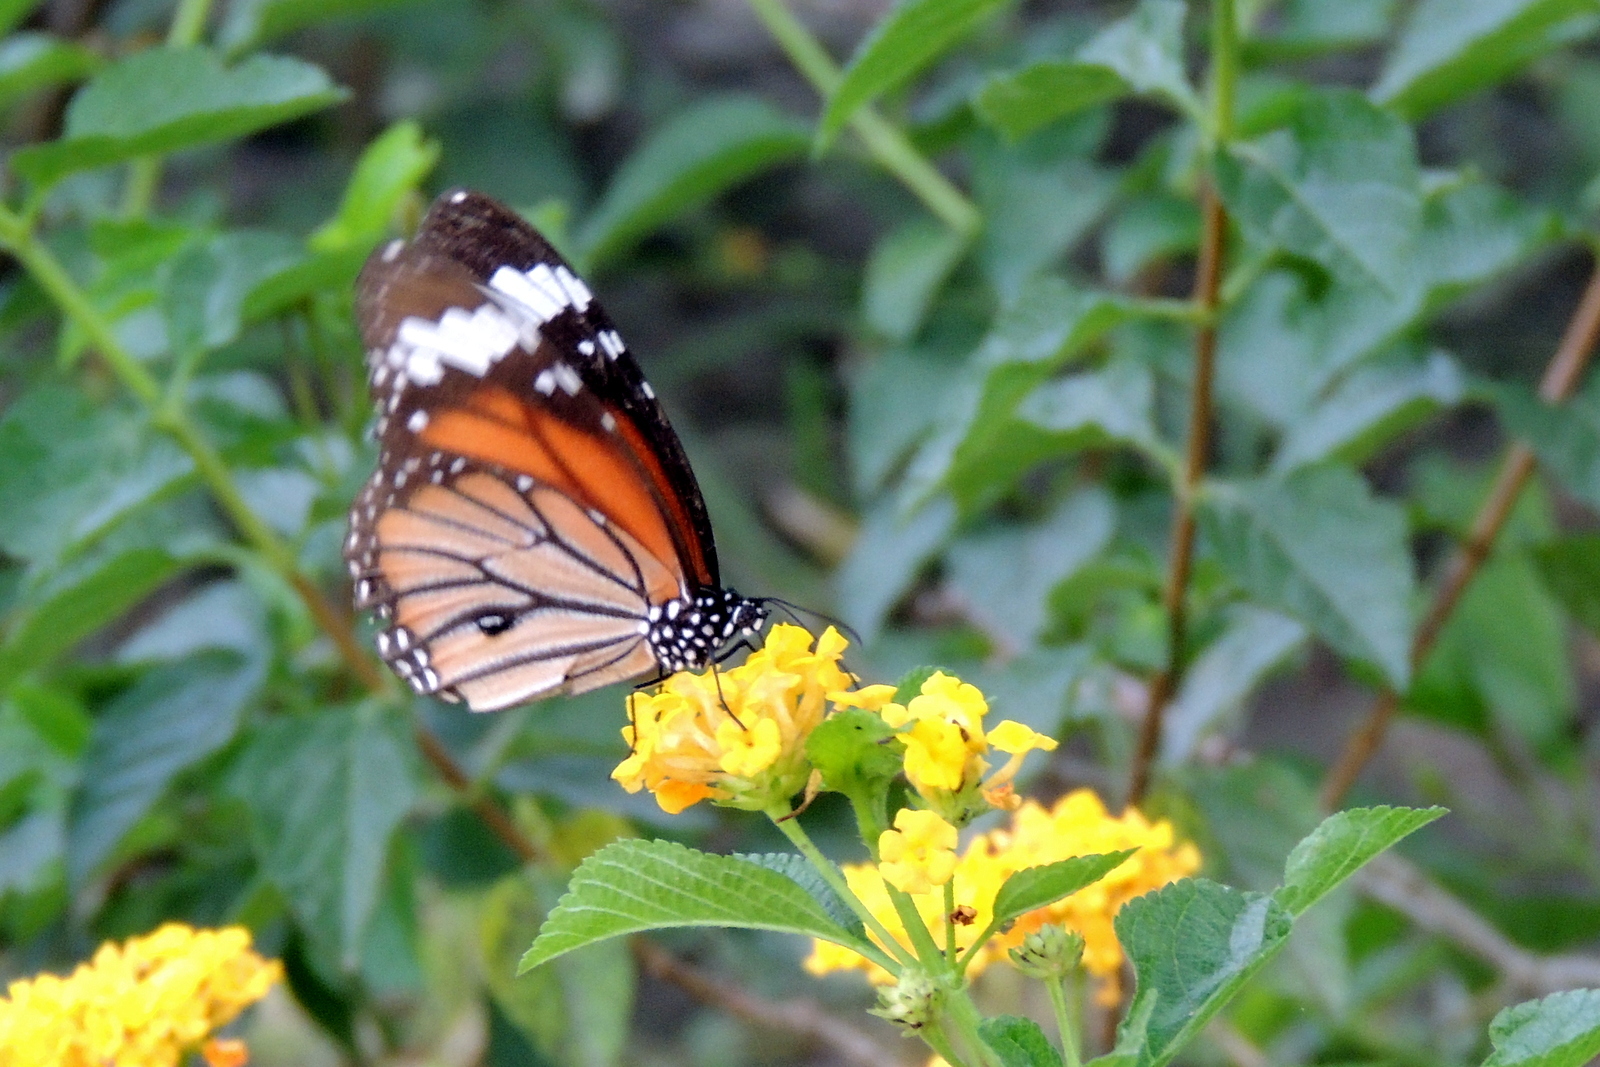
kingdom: Animalia
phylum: Arthropoda
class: Insecta
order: Lepidoptera
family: Nymphalidae
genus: Danaus
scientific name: Danaus genutia
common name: Common tiger butterfly
